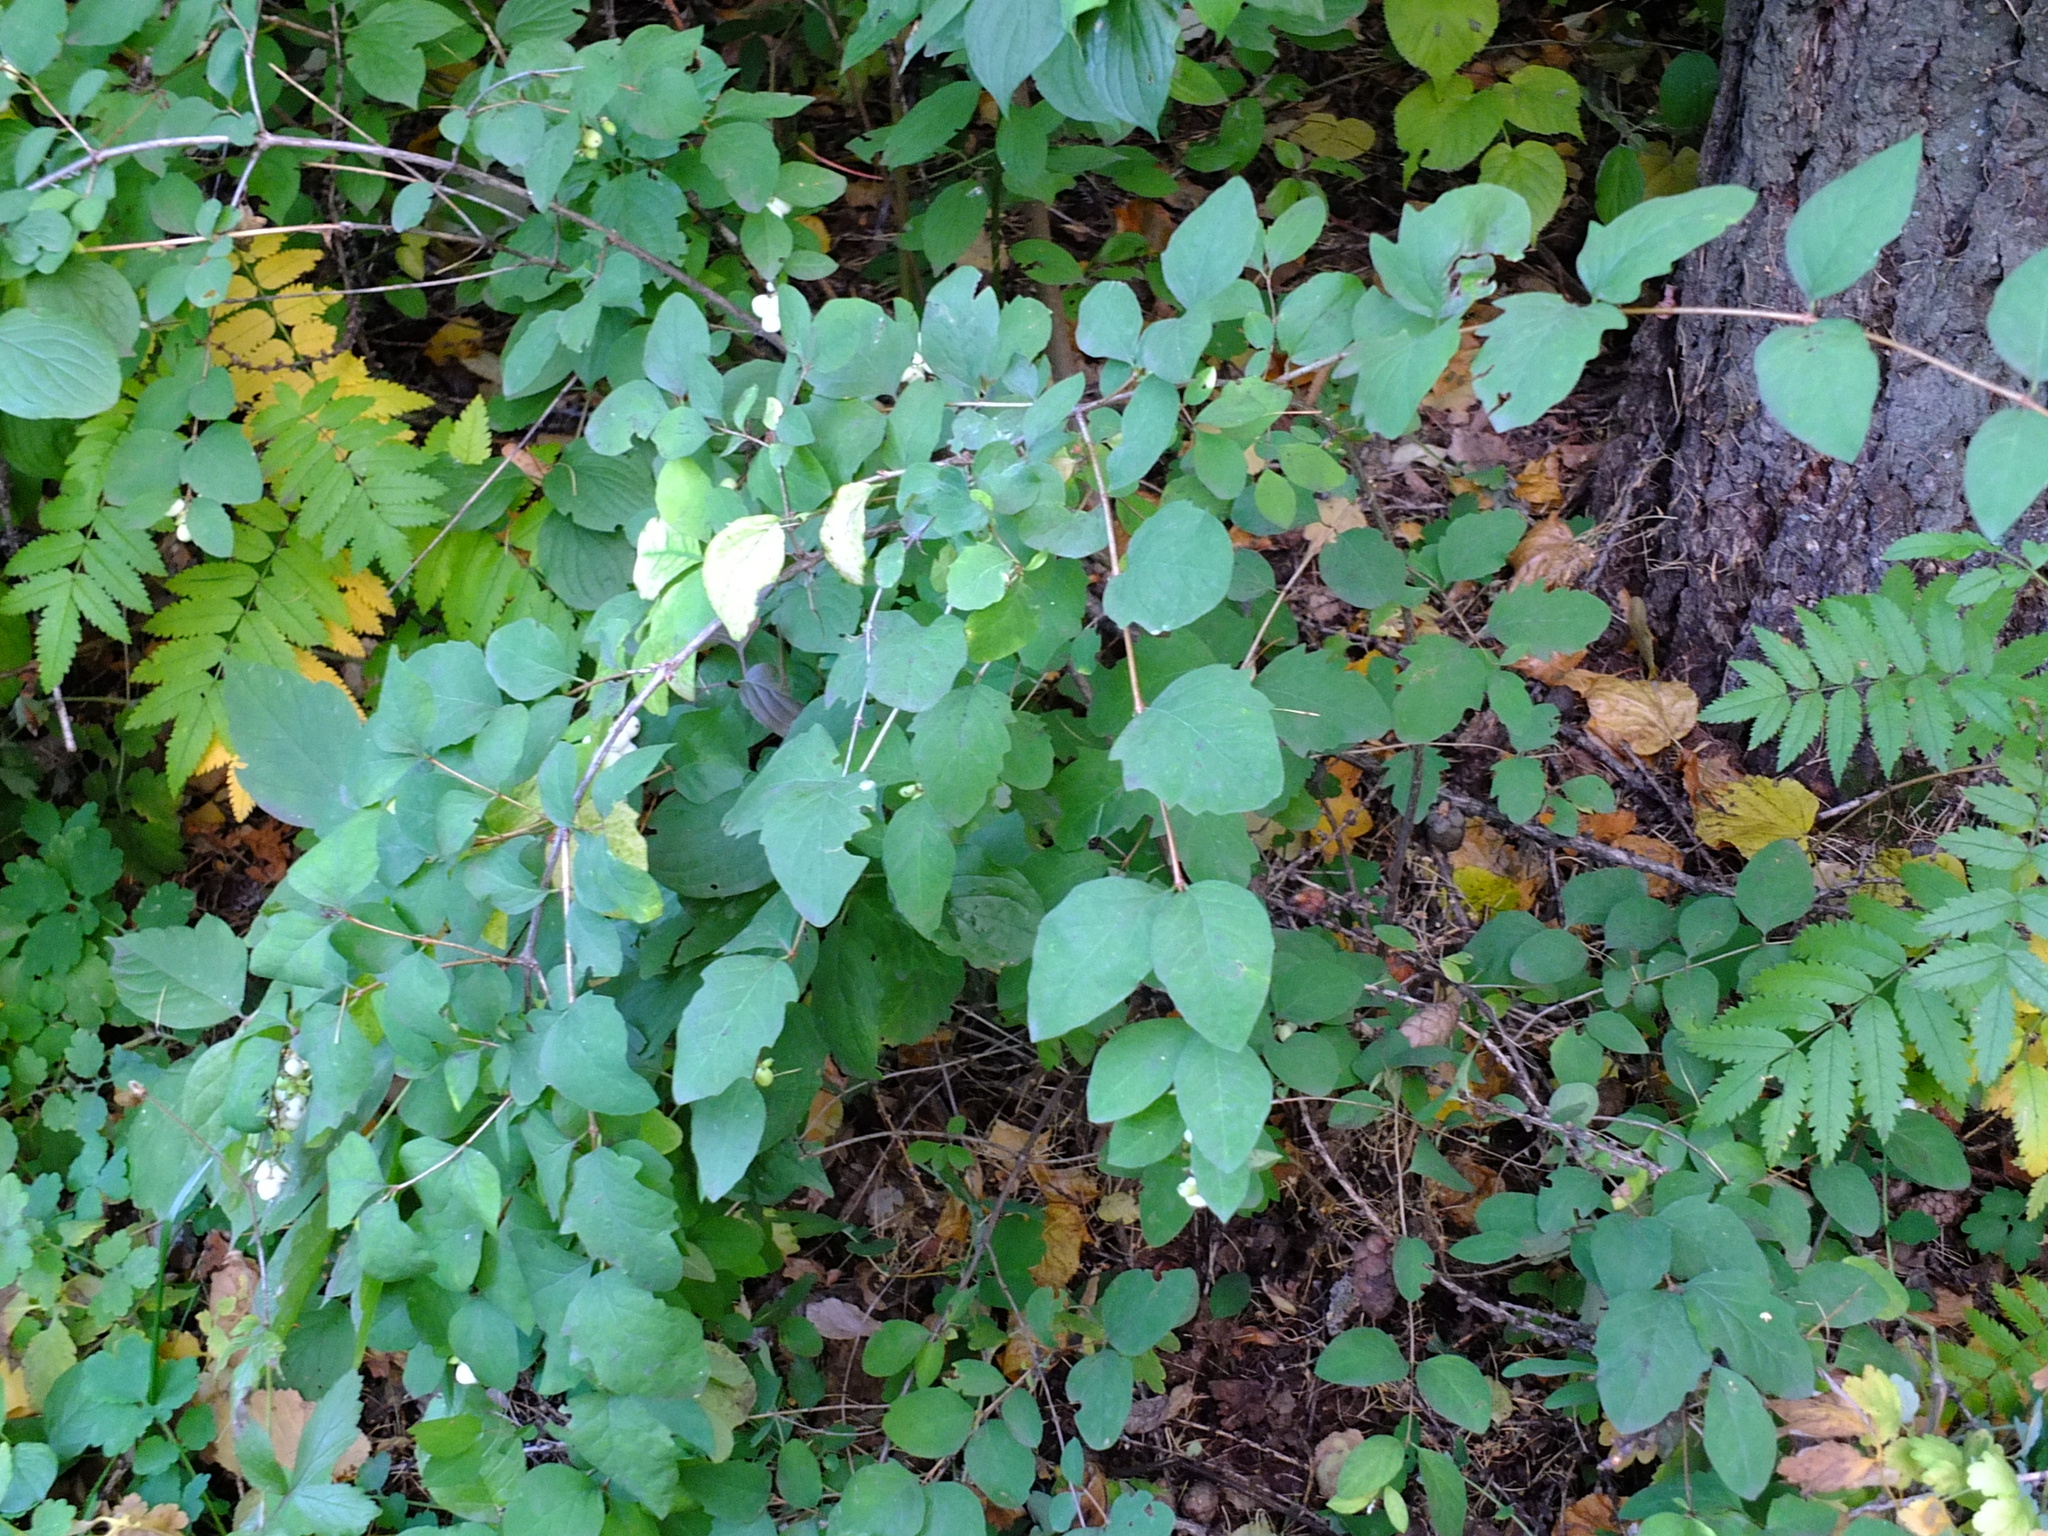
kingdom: Plantae
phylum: Tracheophyta
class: Magnoliopsida
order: Dipsacales
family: Caprifoliaceae
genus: Symphoricarpos
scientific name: Symphoricarpos albus
